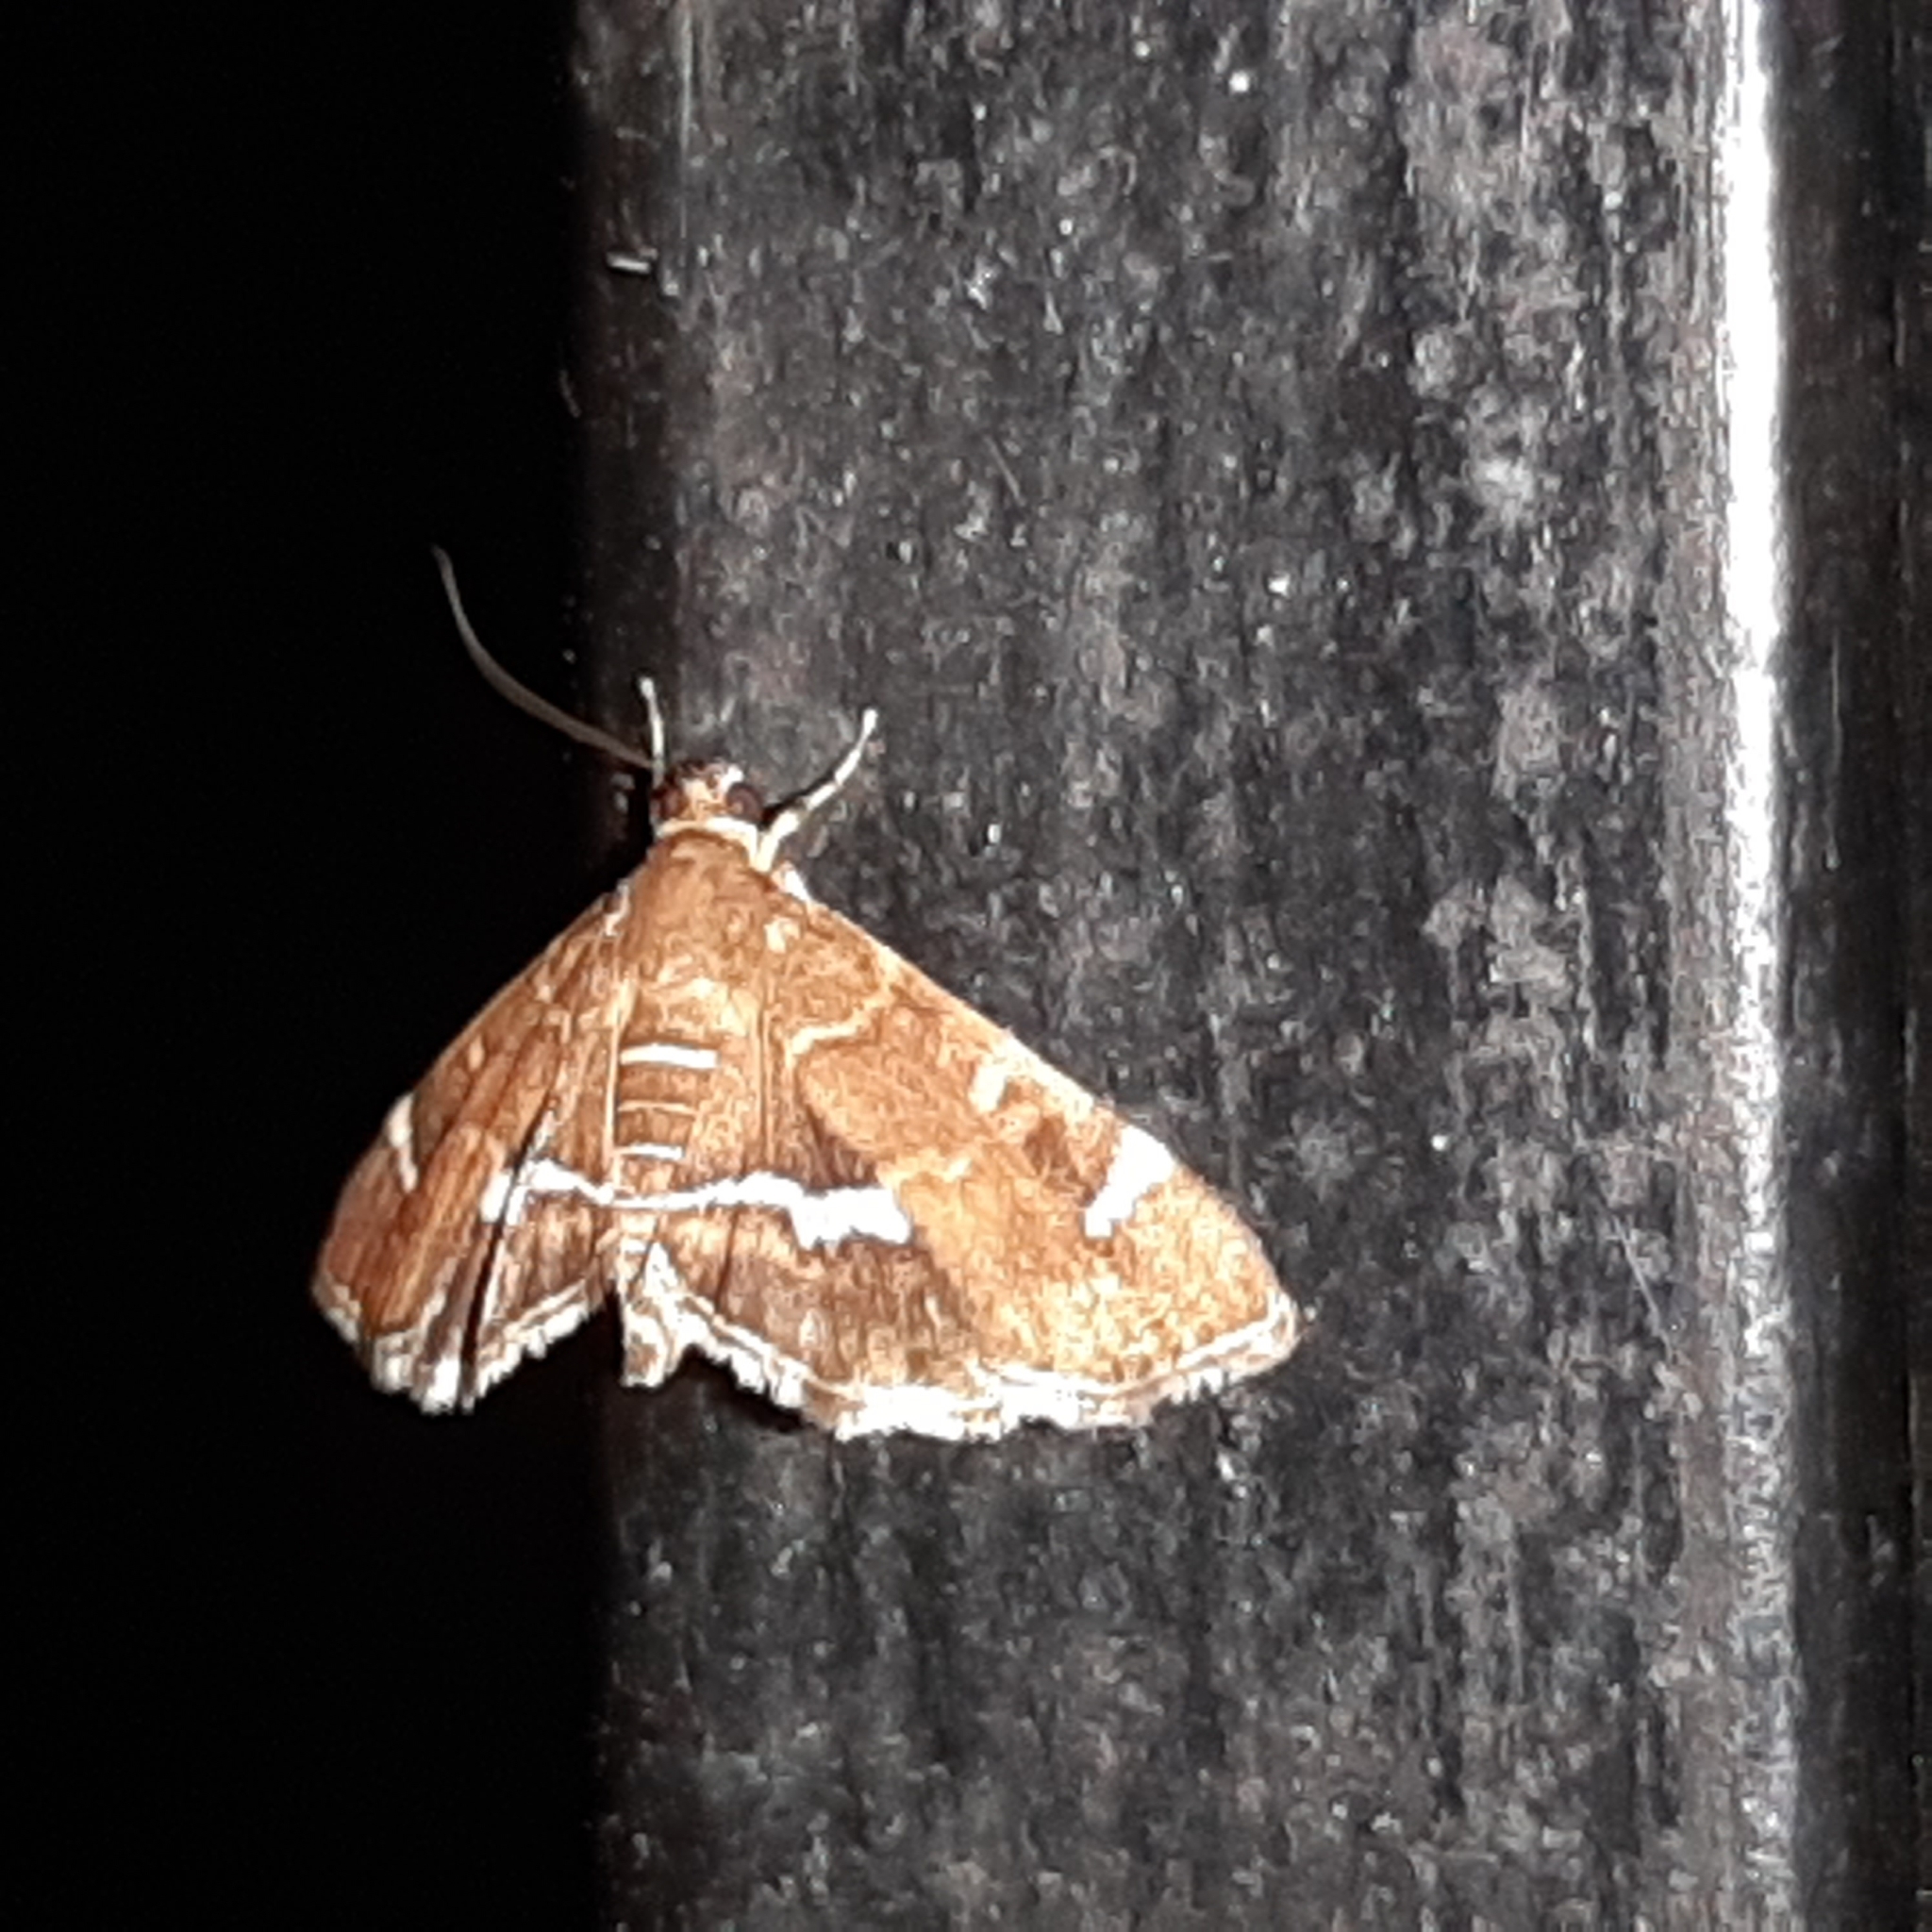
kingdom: Animalia
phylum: Arthropoda
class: Insecta
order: Lepidoptera
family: Crambidae
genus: Hymenia
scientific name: Hymenia perspectalis
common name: Spotted beet webworm
